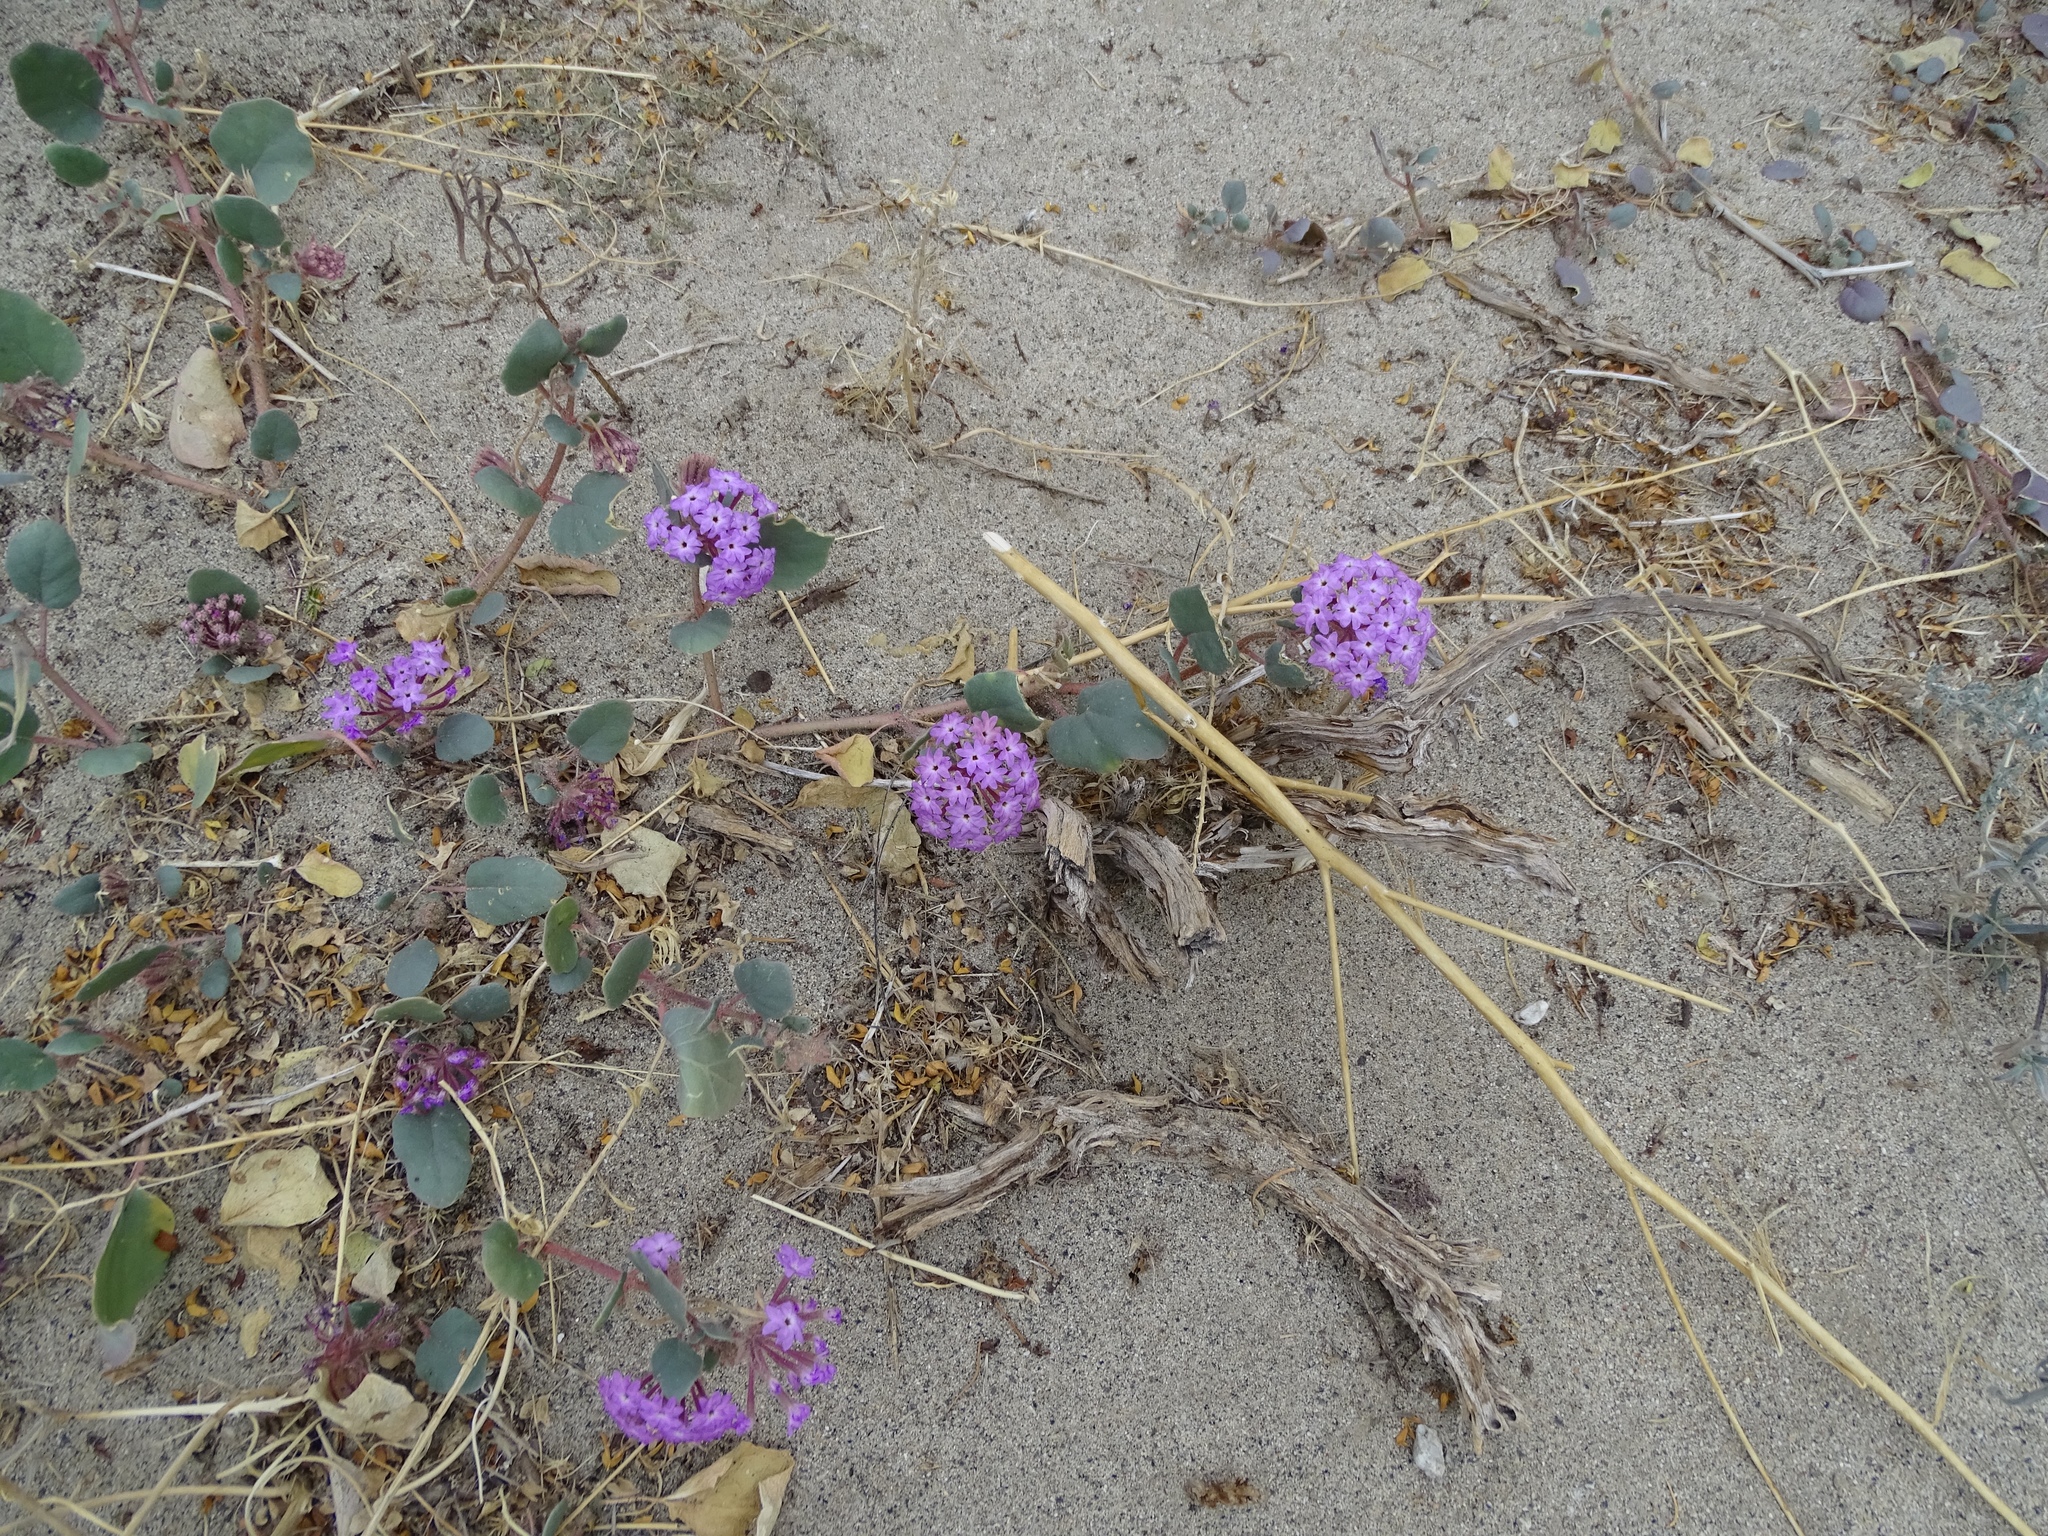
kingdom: Plantae
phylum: Tracheophyta
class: Magnoliopsida
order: Caryophyllales
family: Nyctaginaceae
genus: Abronia
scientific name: Abronia villosa
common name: Desert sand-verbena
